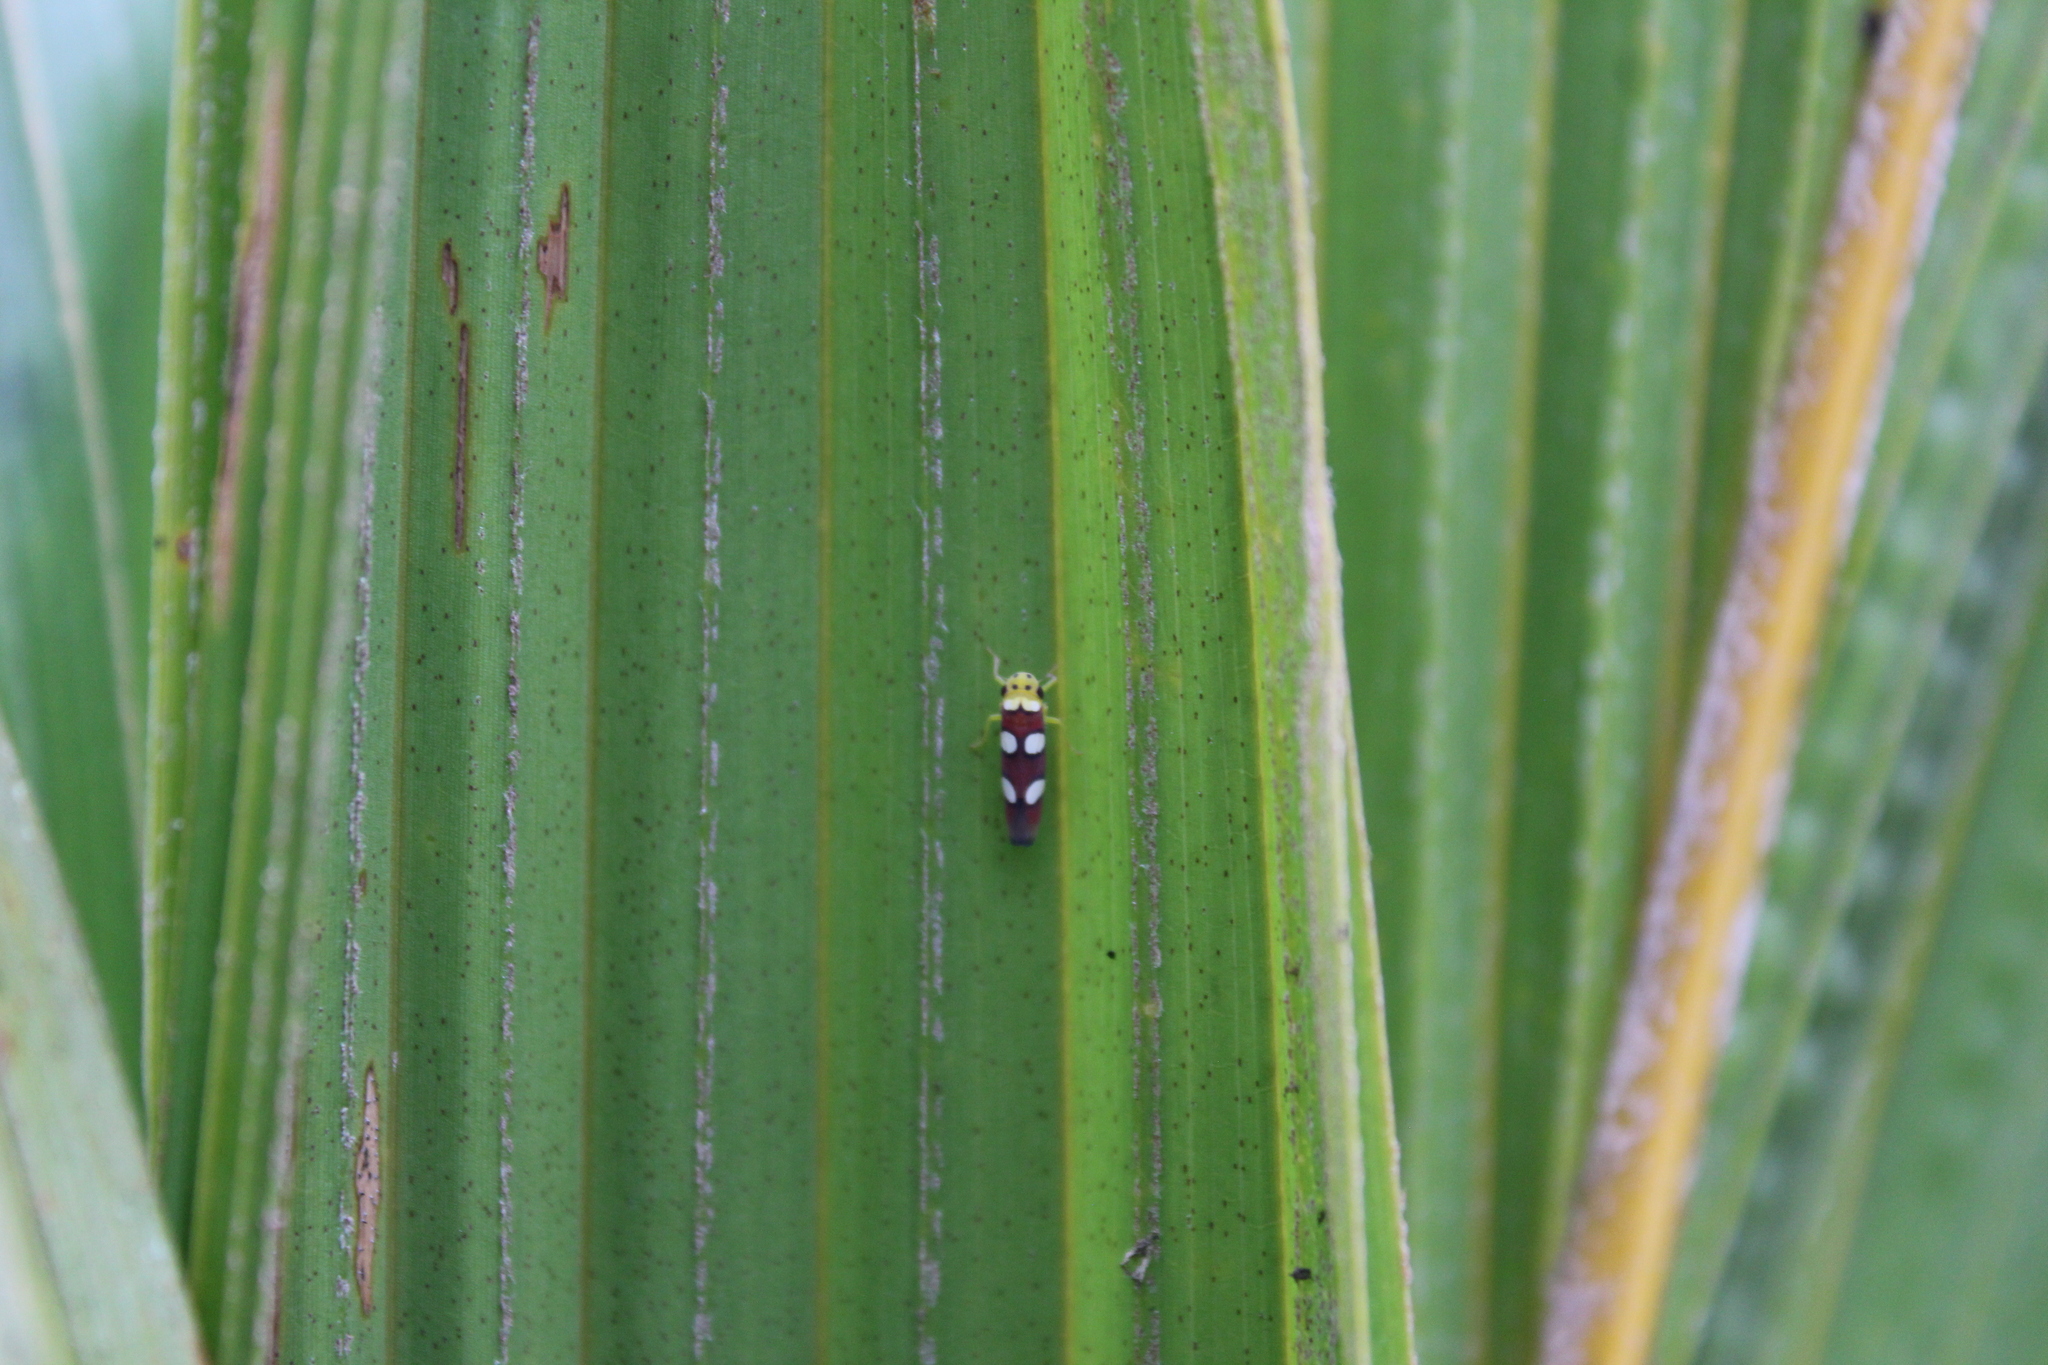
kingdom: Animalia
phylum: Arthropoda
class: Insecta
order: Hemiptera
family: Cicadellidae
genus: Erythrogonia
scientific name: Erythrogonia laudata
